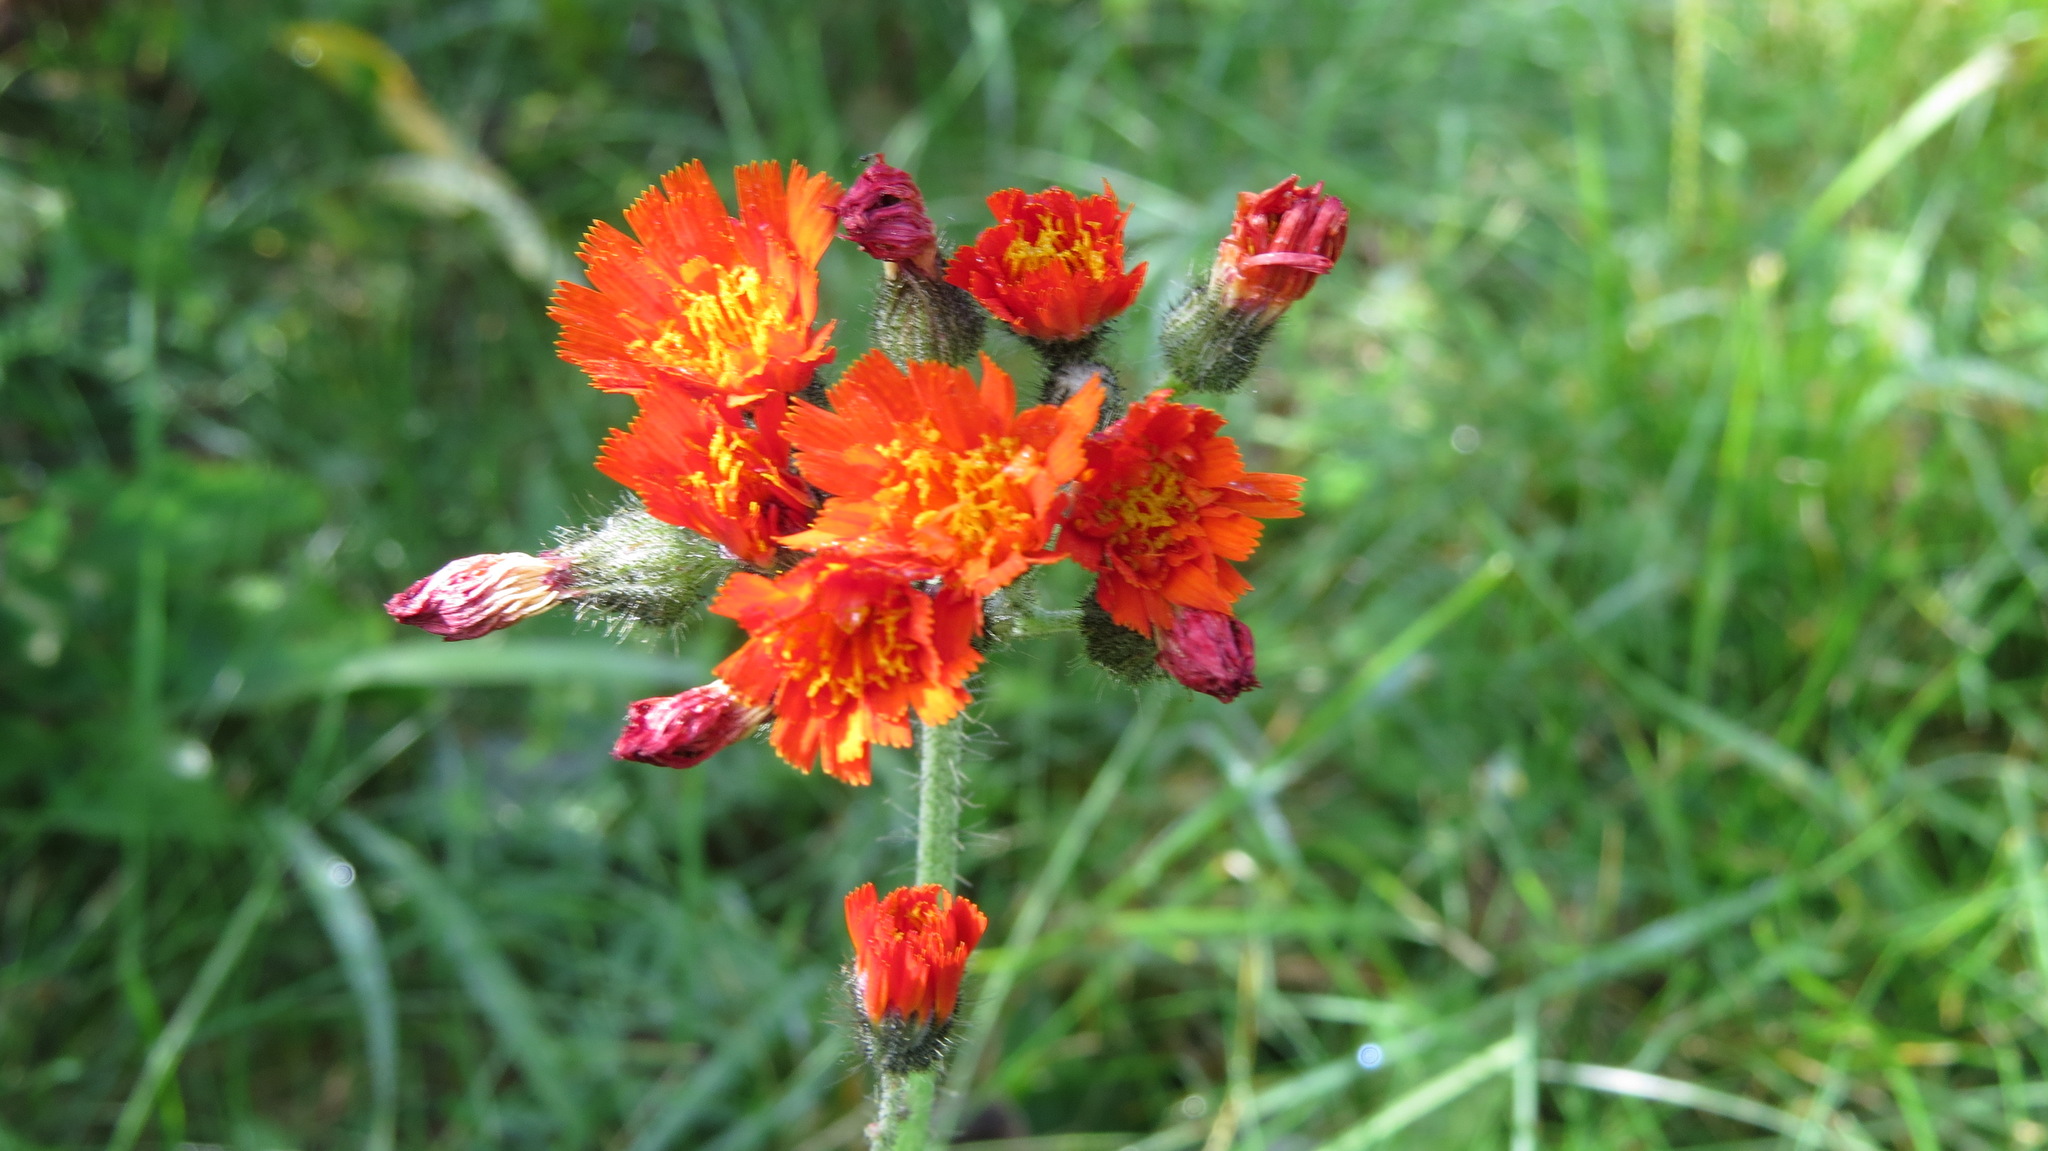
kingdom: Plantae
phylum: Tracheophyta
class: Magnoliopsida
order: Asterales
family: Asteraceae
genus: Pilosella
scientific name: Pilosella aurantiaca
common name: Fox-and-cubs
